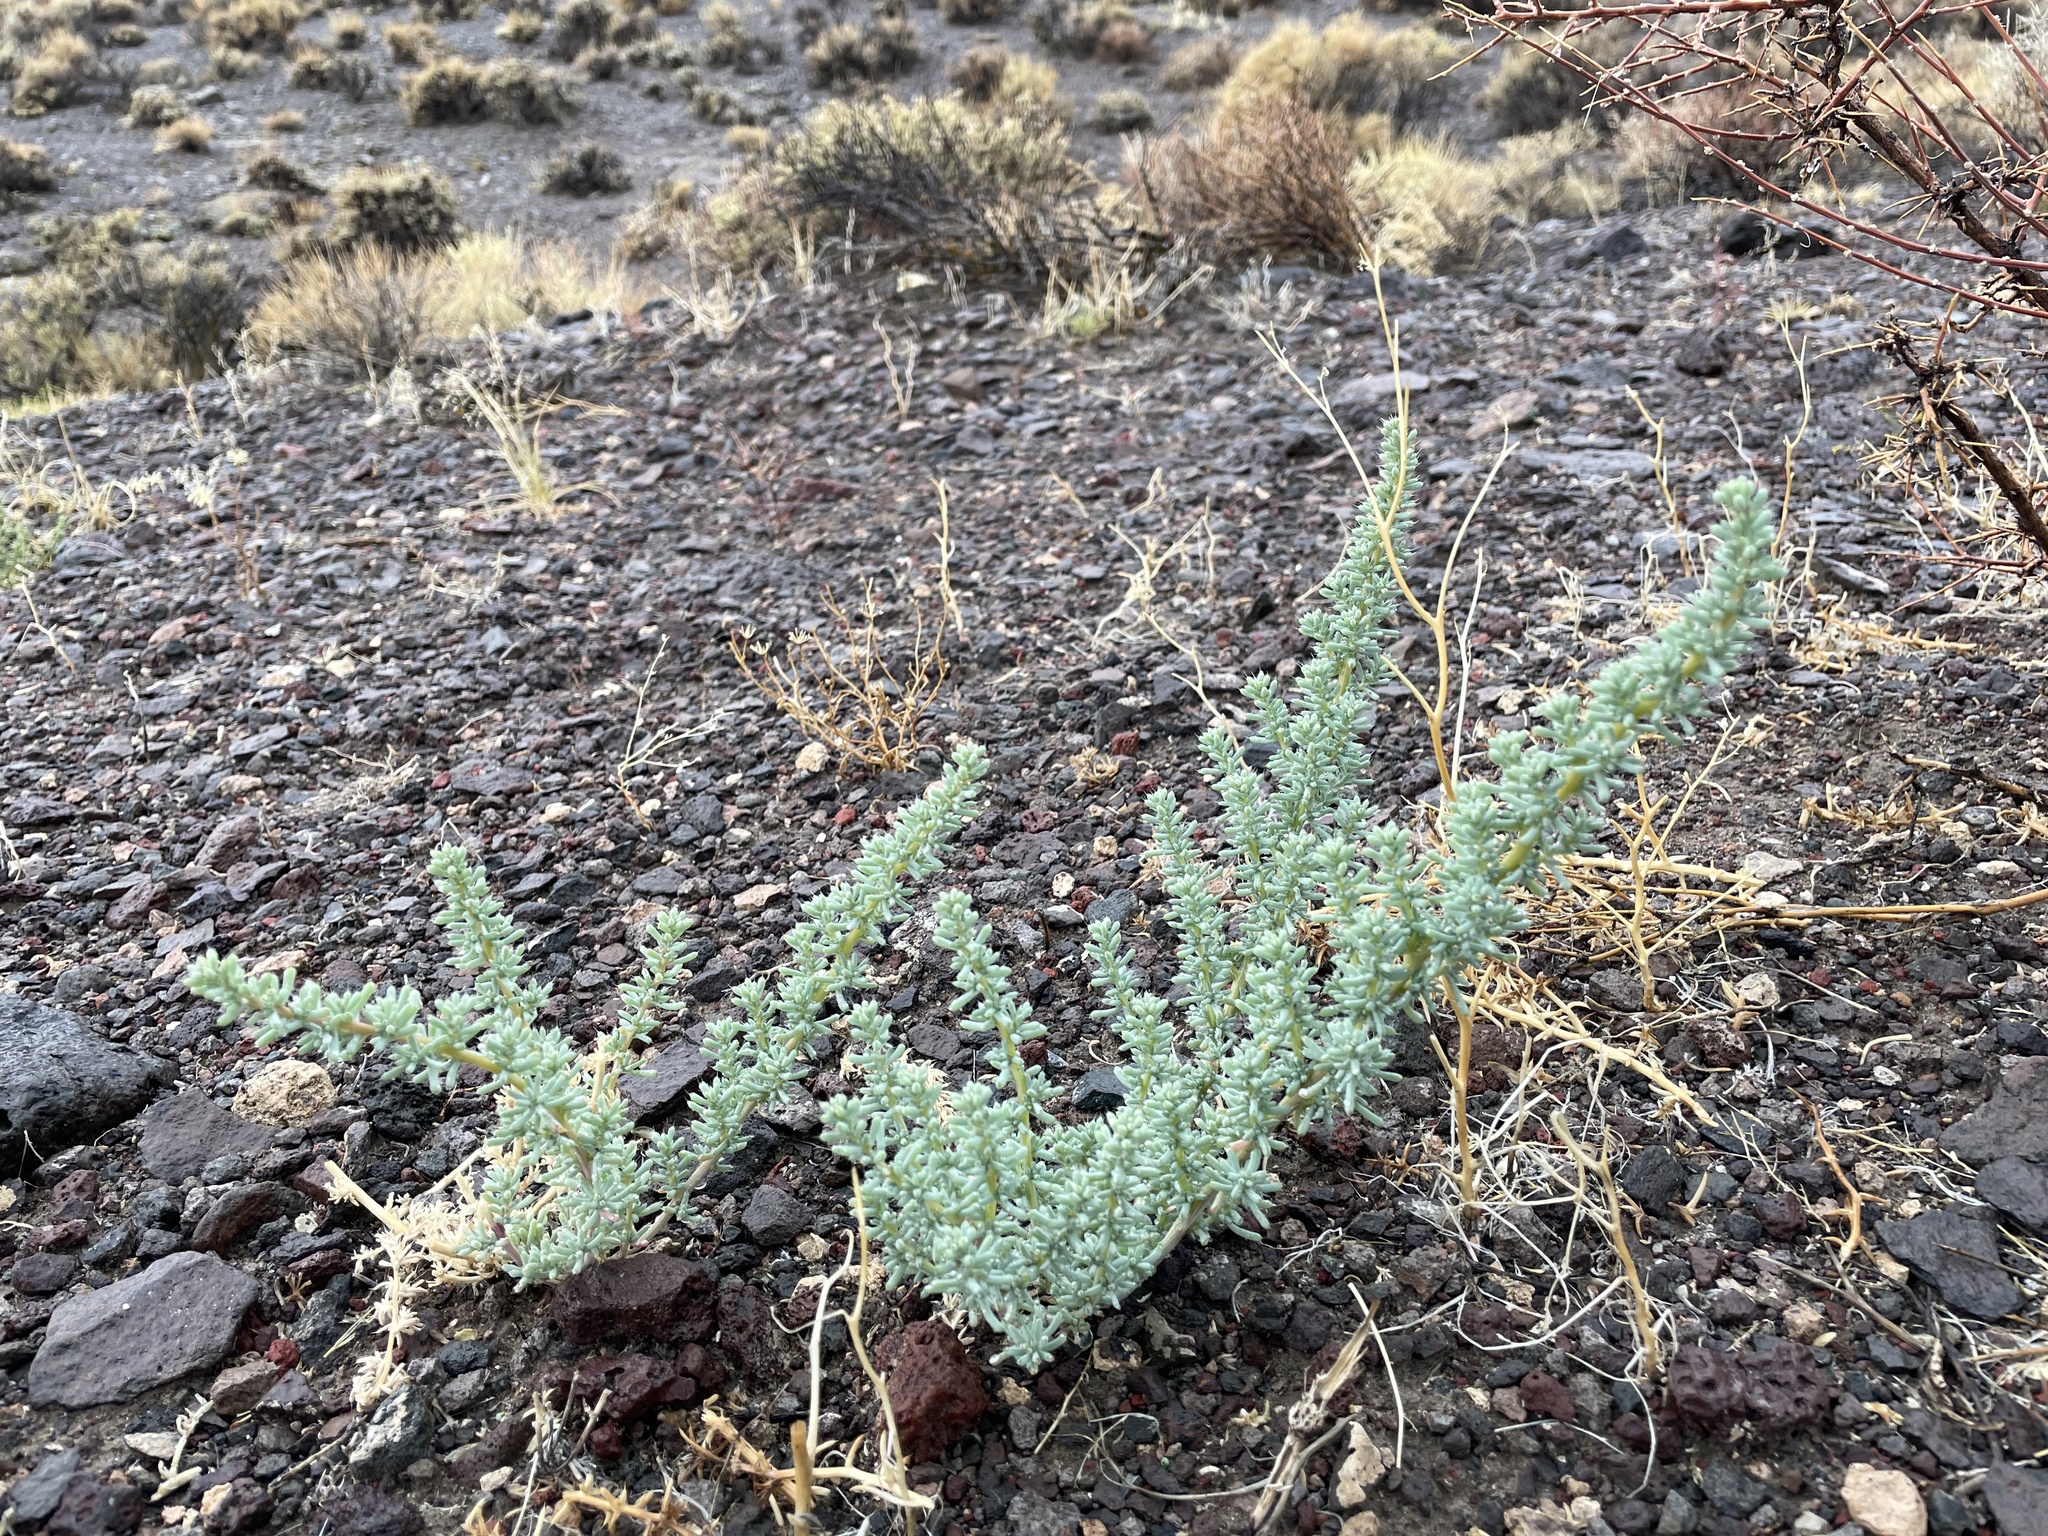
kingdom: Plantae
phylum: Tracheophyta
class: Magnoliopsida
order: Caryophyllales
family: Amaranthaceae
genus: Halogeton
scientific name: Halogeton glomeratus
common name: Saltlover
